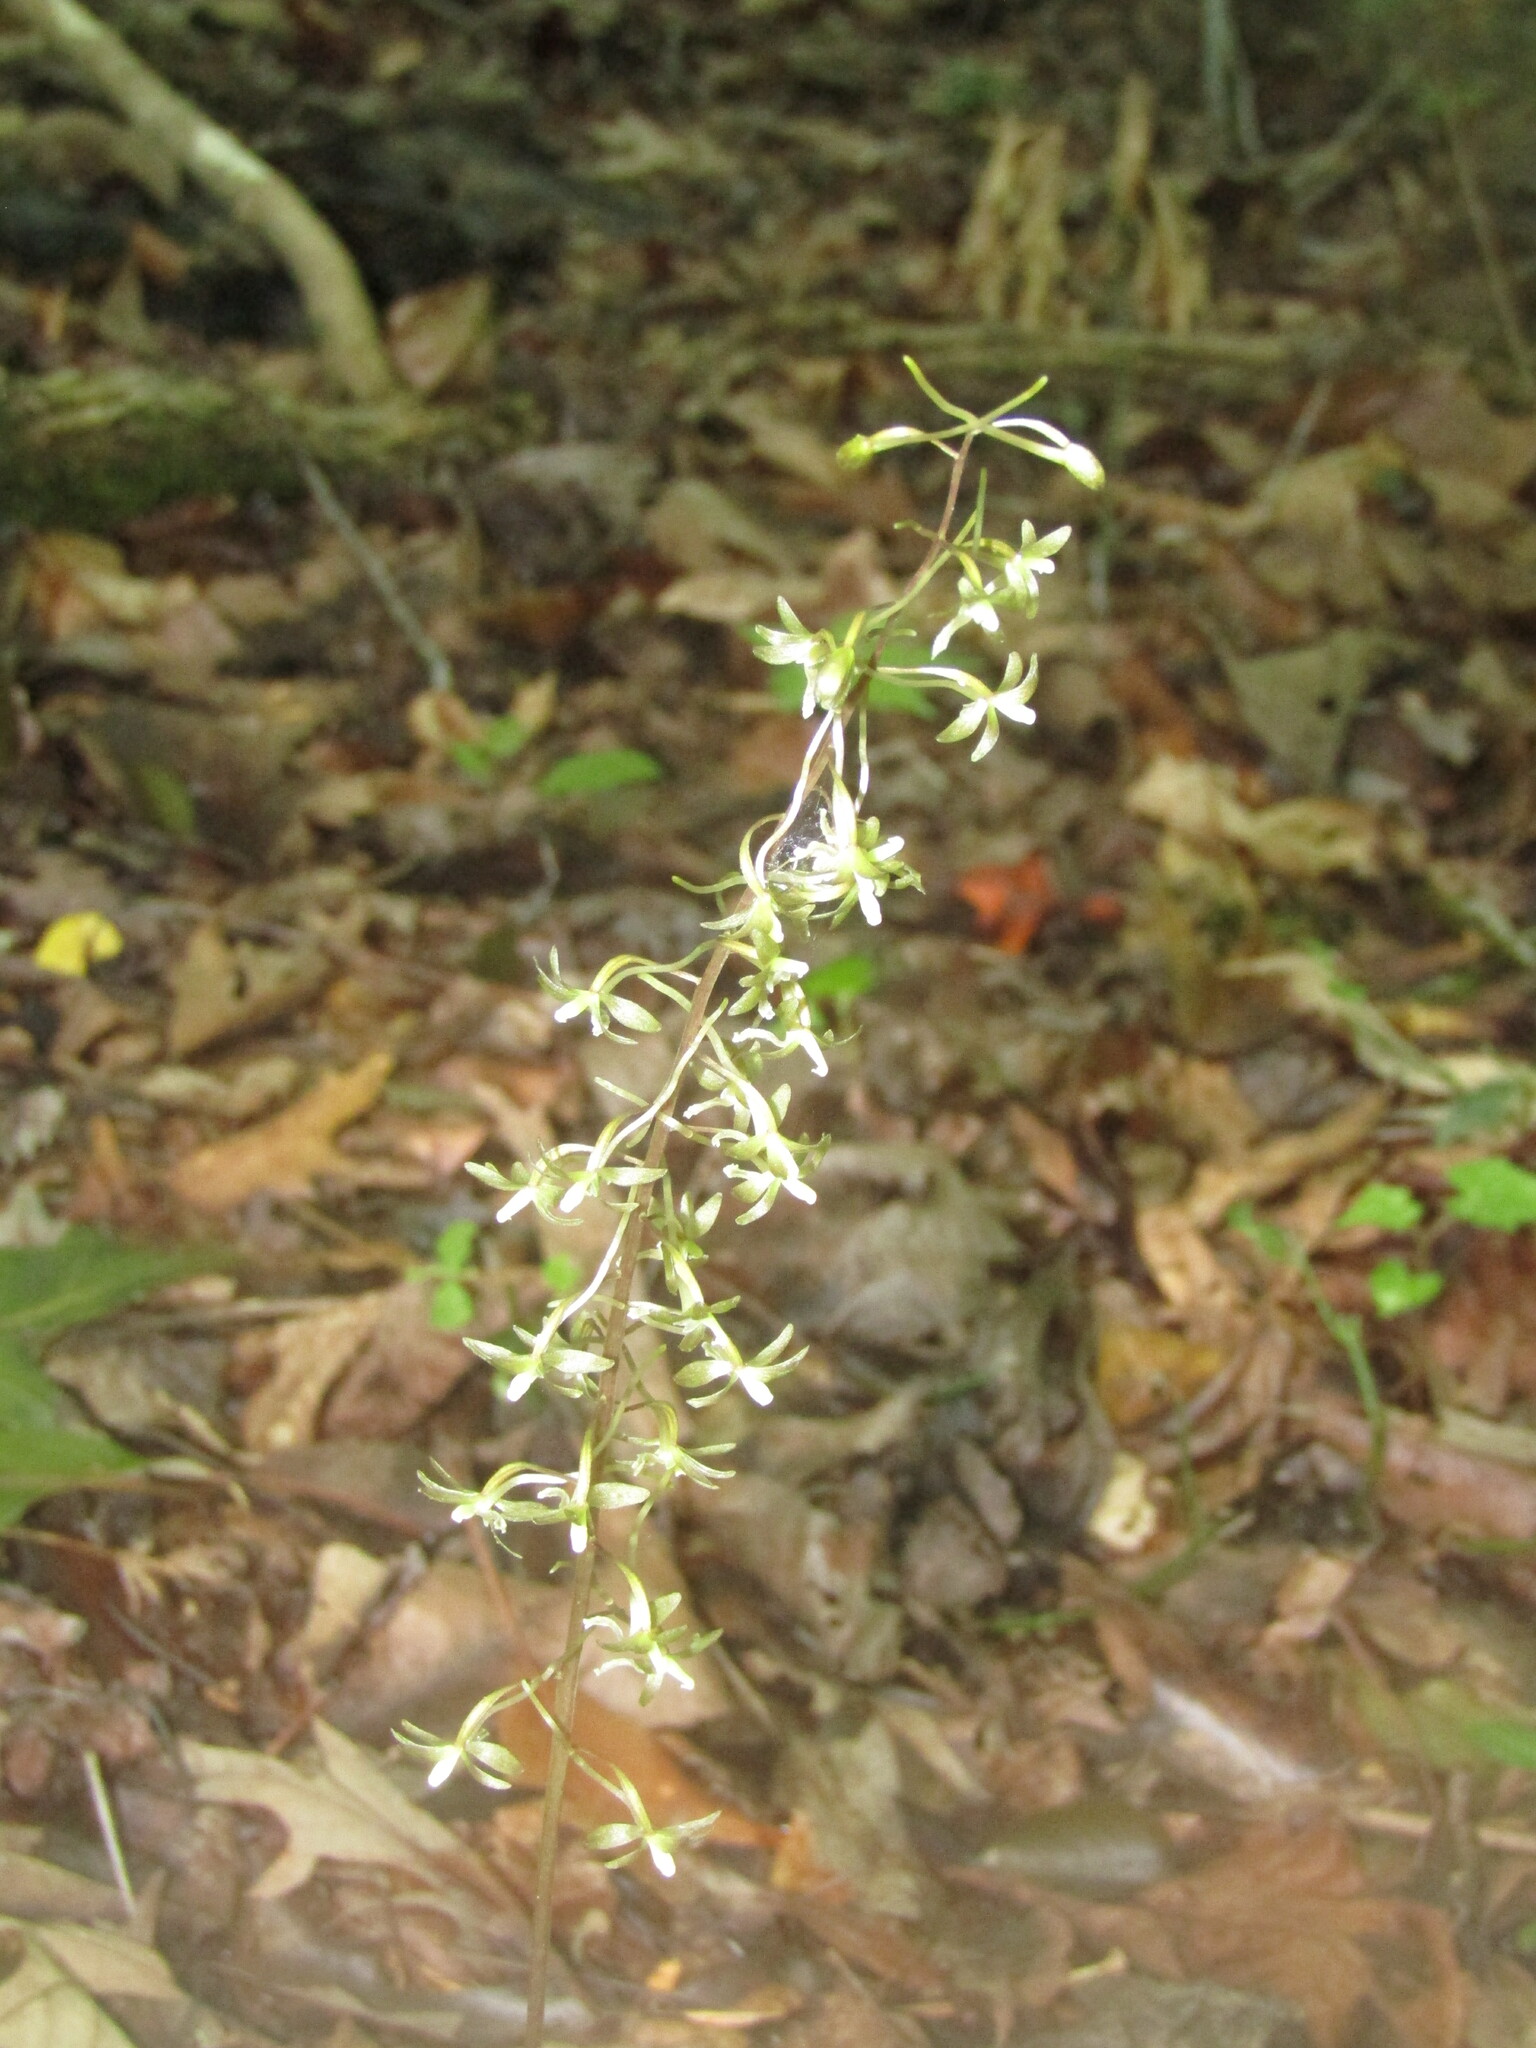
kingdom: Plantae
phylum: Tracheophyta
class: Liliopsida
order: Asparagales
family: Orchidaceae
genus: Tipularia
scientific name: Tipularia discolor
